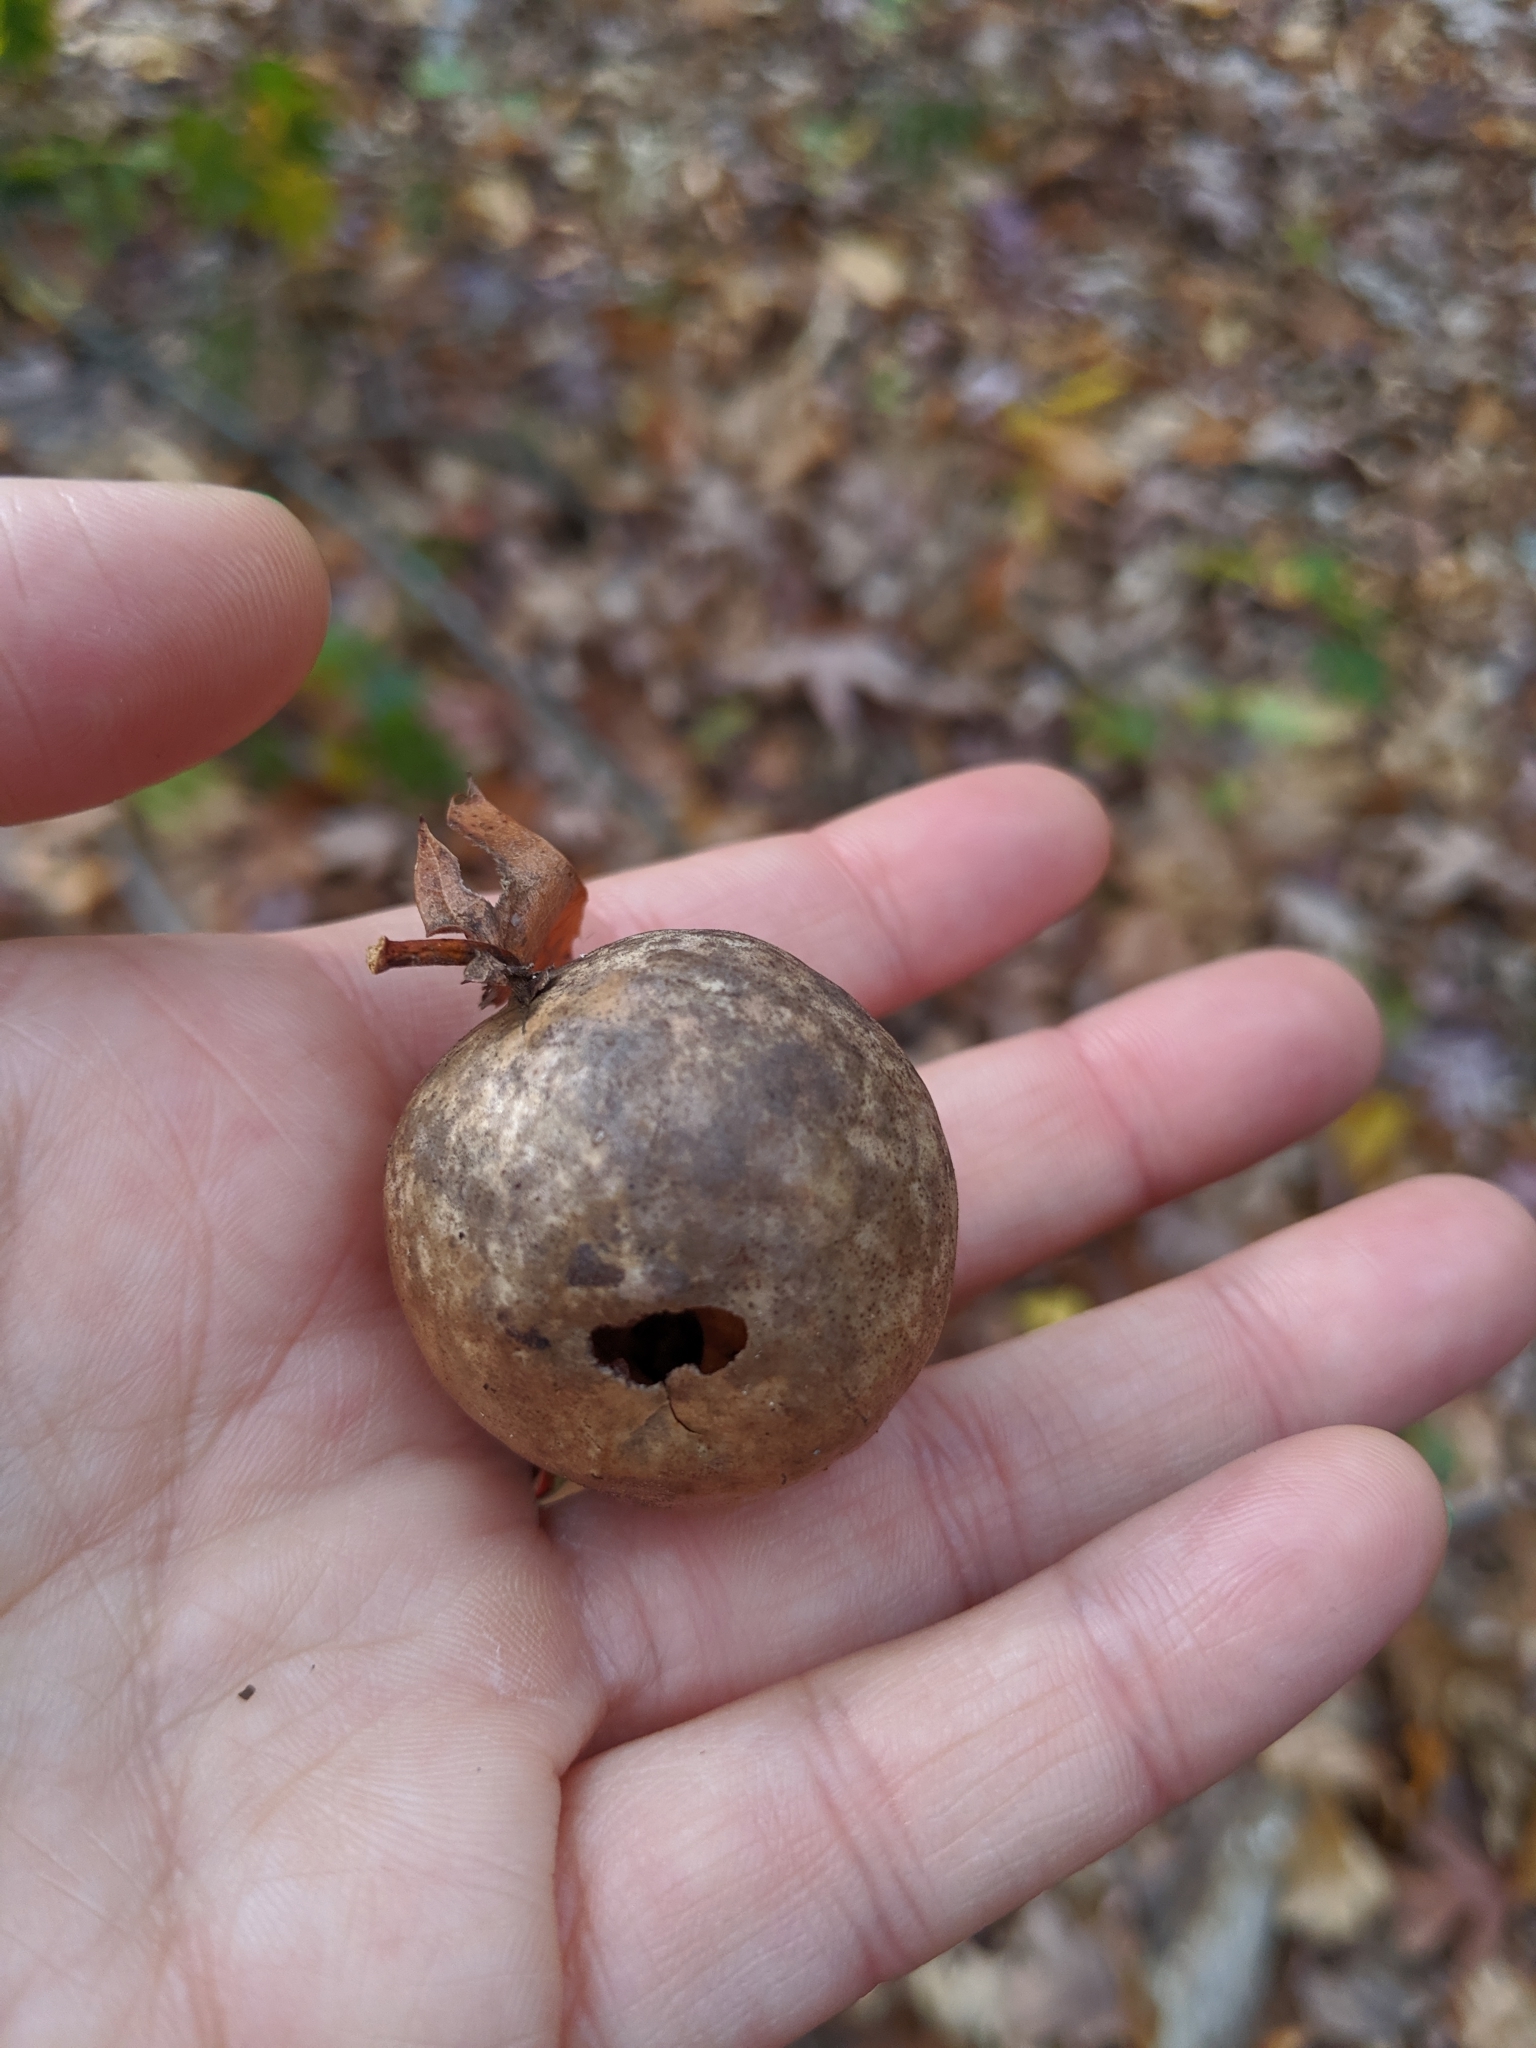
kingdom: Animalia
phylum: Arthropoda
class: Insecta
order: Hymenoptera
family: Cynipidae
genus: Amphibolips
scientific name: Amphibolips
